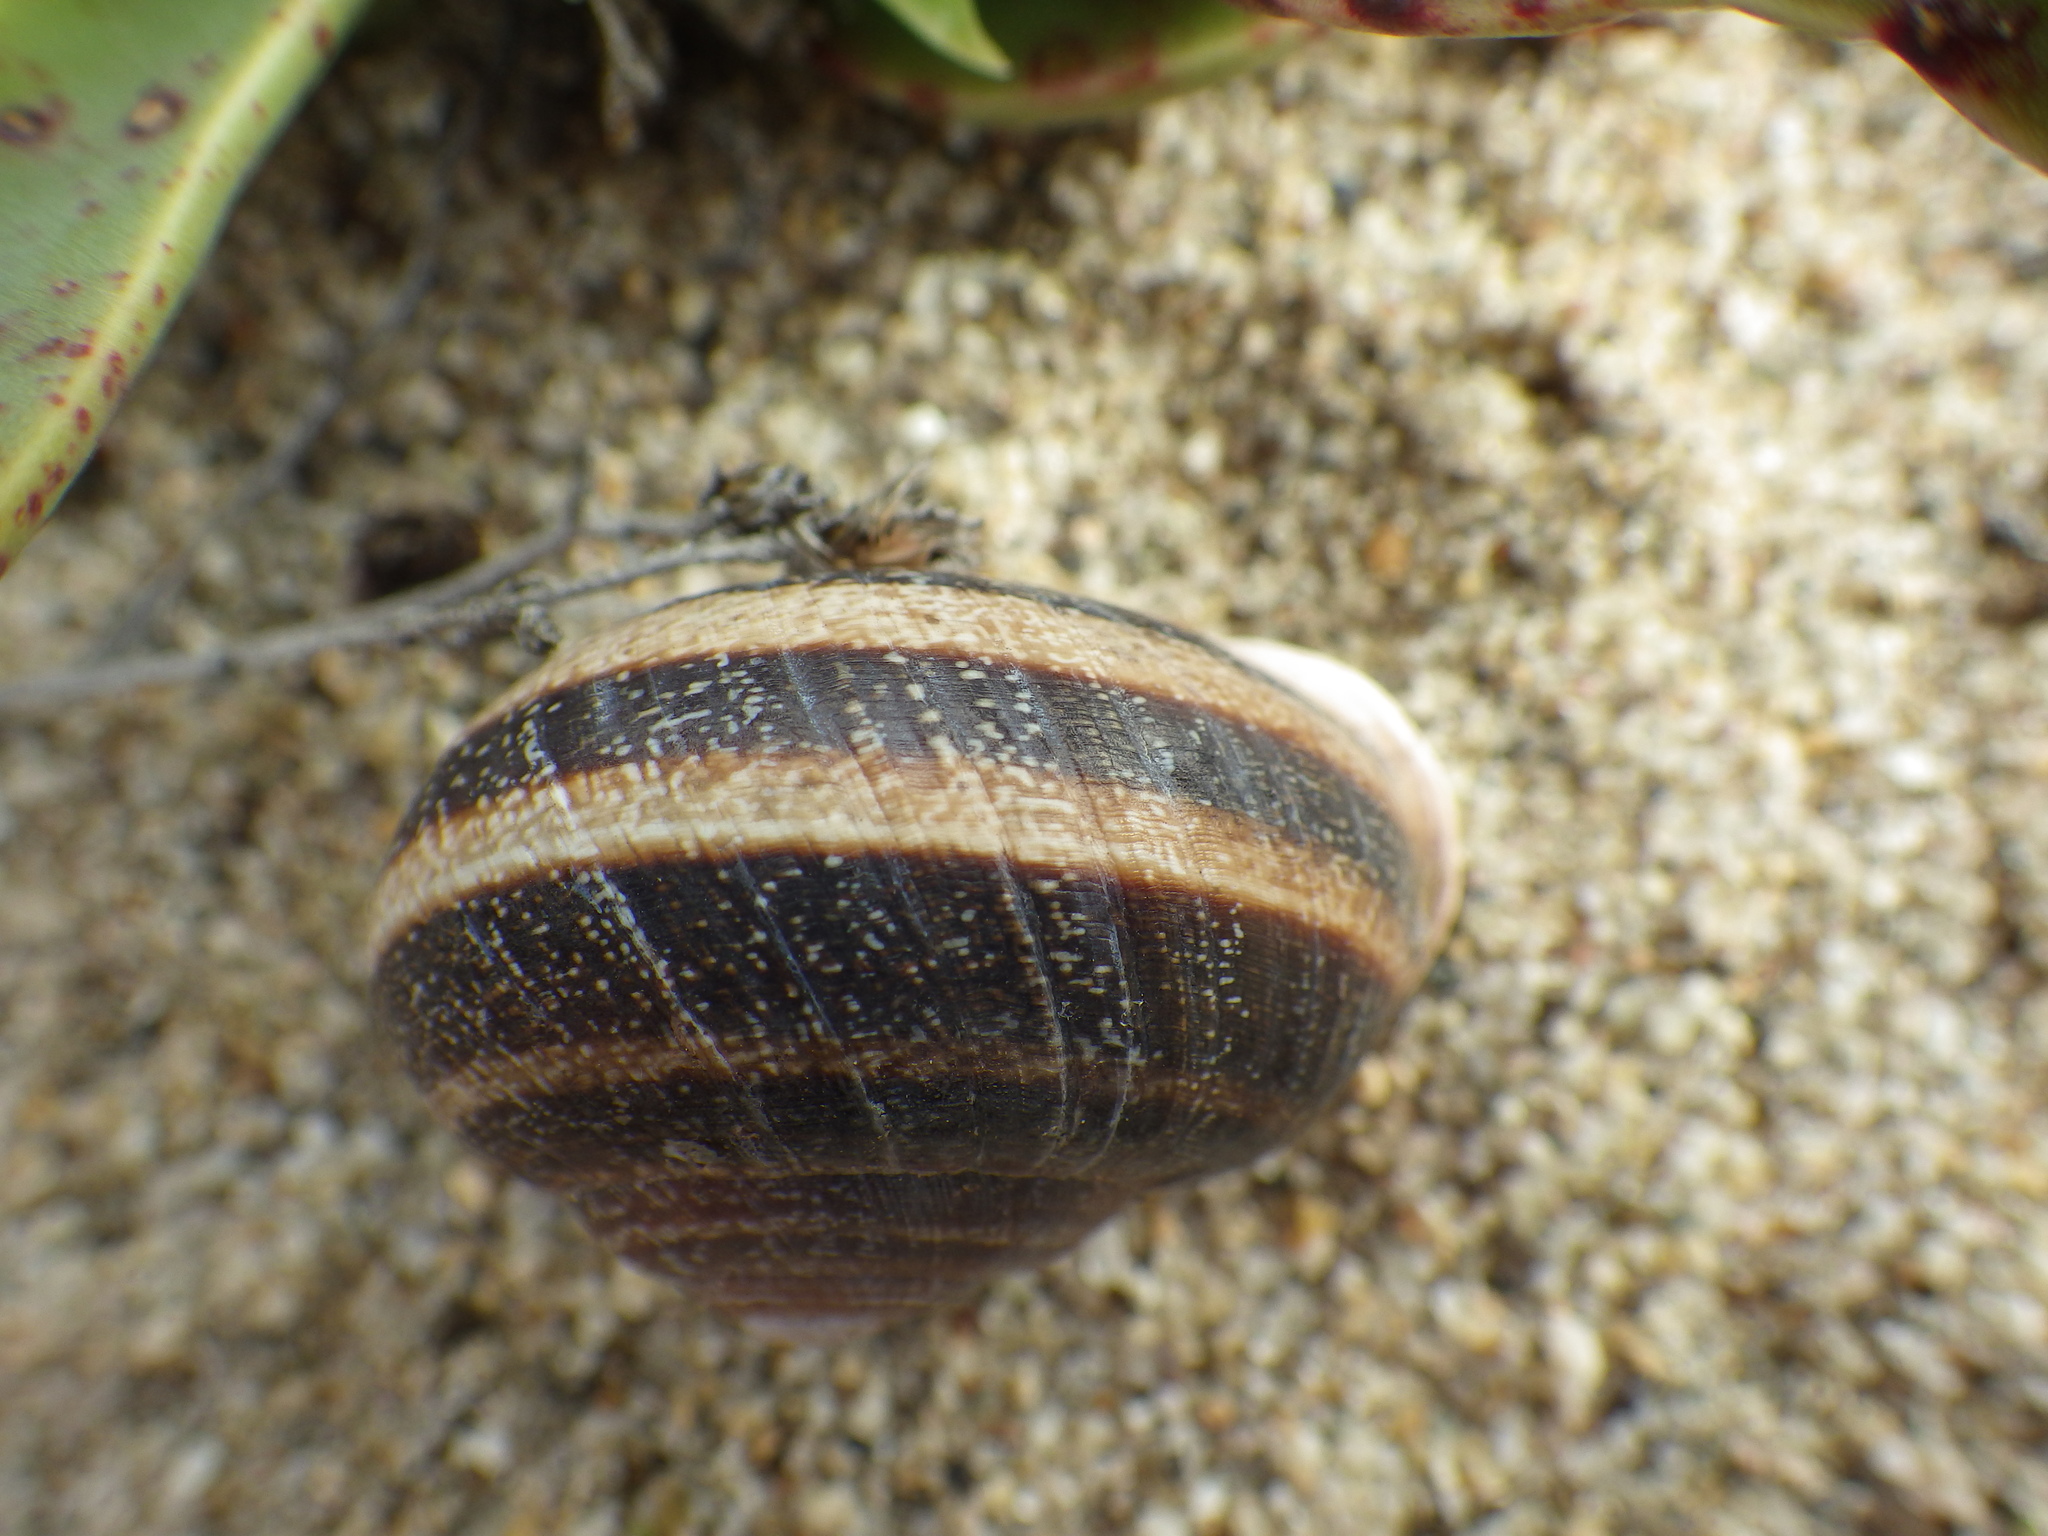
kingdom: Animalia
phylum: Mollusca
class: Gastropoda
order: Stylommatophora
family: Helicidae
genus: Otala
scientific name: Otala lactea
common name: Milk snail
